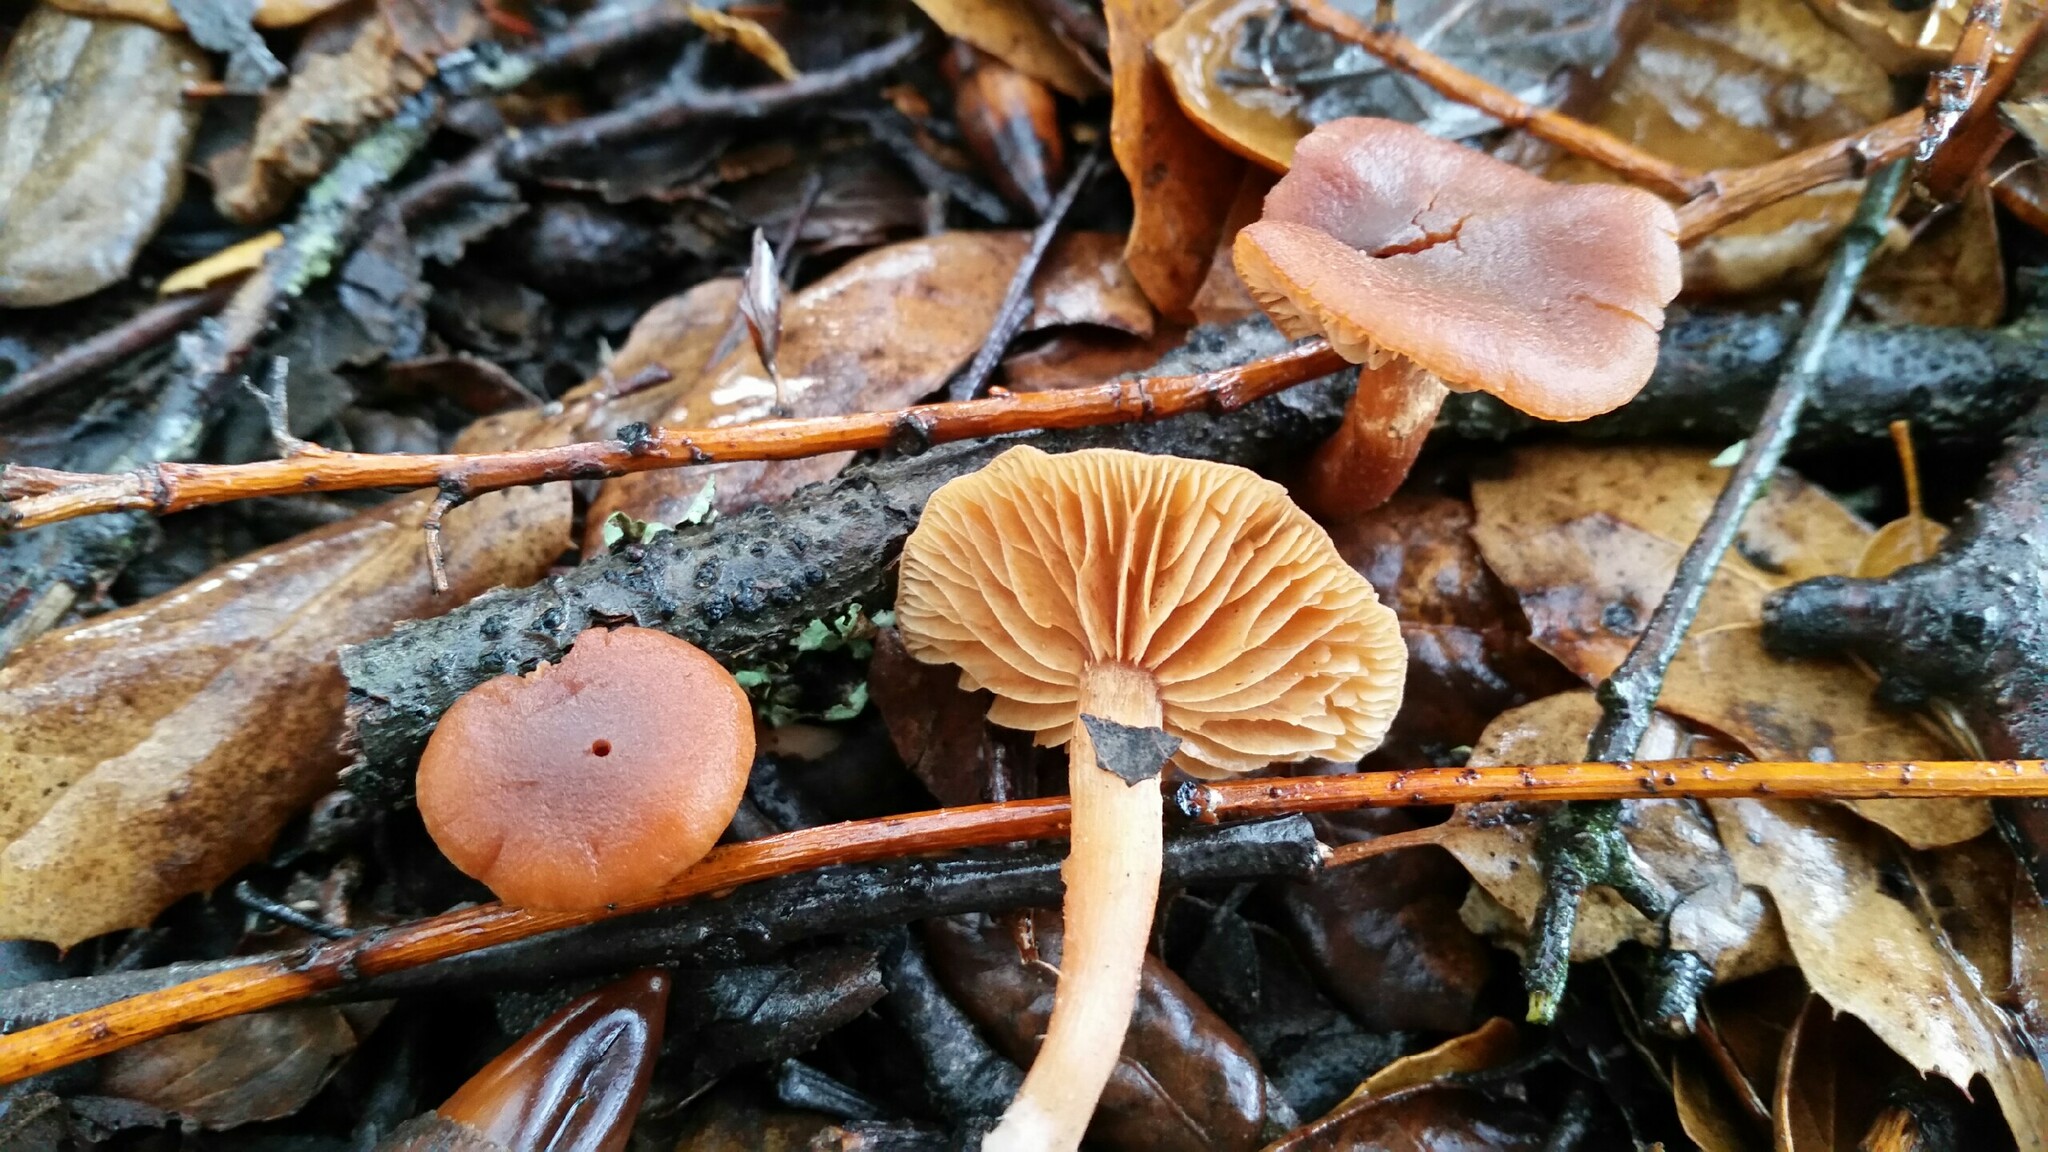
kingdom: Fungi
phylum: Basidiomycota
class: Agaricomycetes
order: Agaricales
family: Tubariaceae
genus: Tubaria
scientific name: Tubaria furfuracea
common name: Scurfy twiglet
